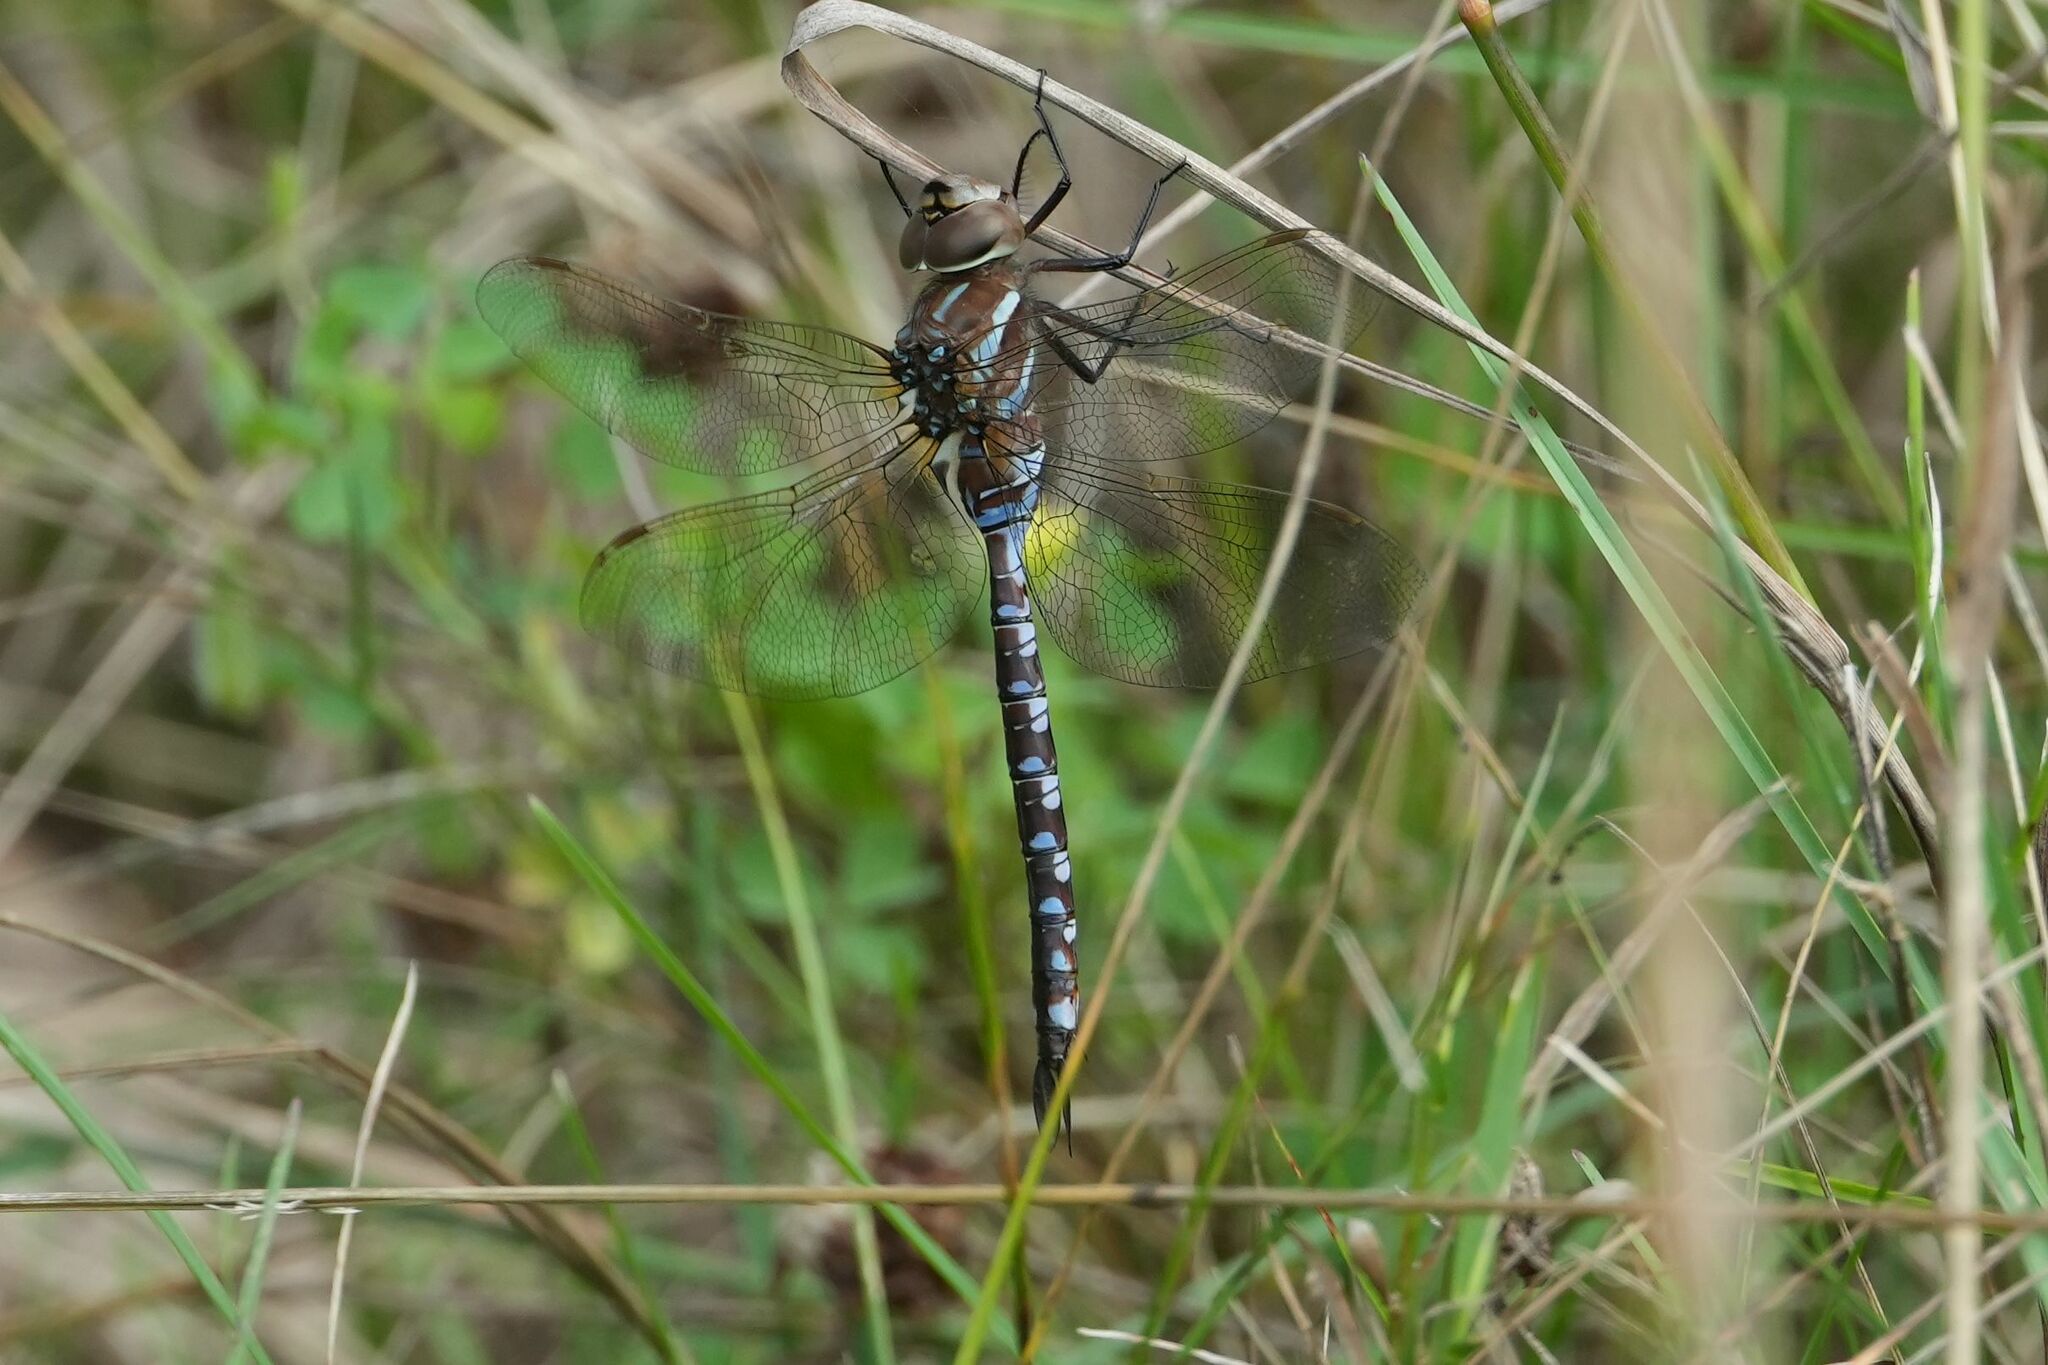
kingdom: Animalia
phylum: Arthropoda
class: Insecta
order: Odonata
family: Aeshnidae
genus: Aeshna
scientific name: Aeshna constricta
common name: Lance-tipped darner
